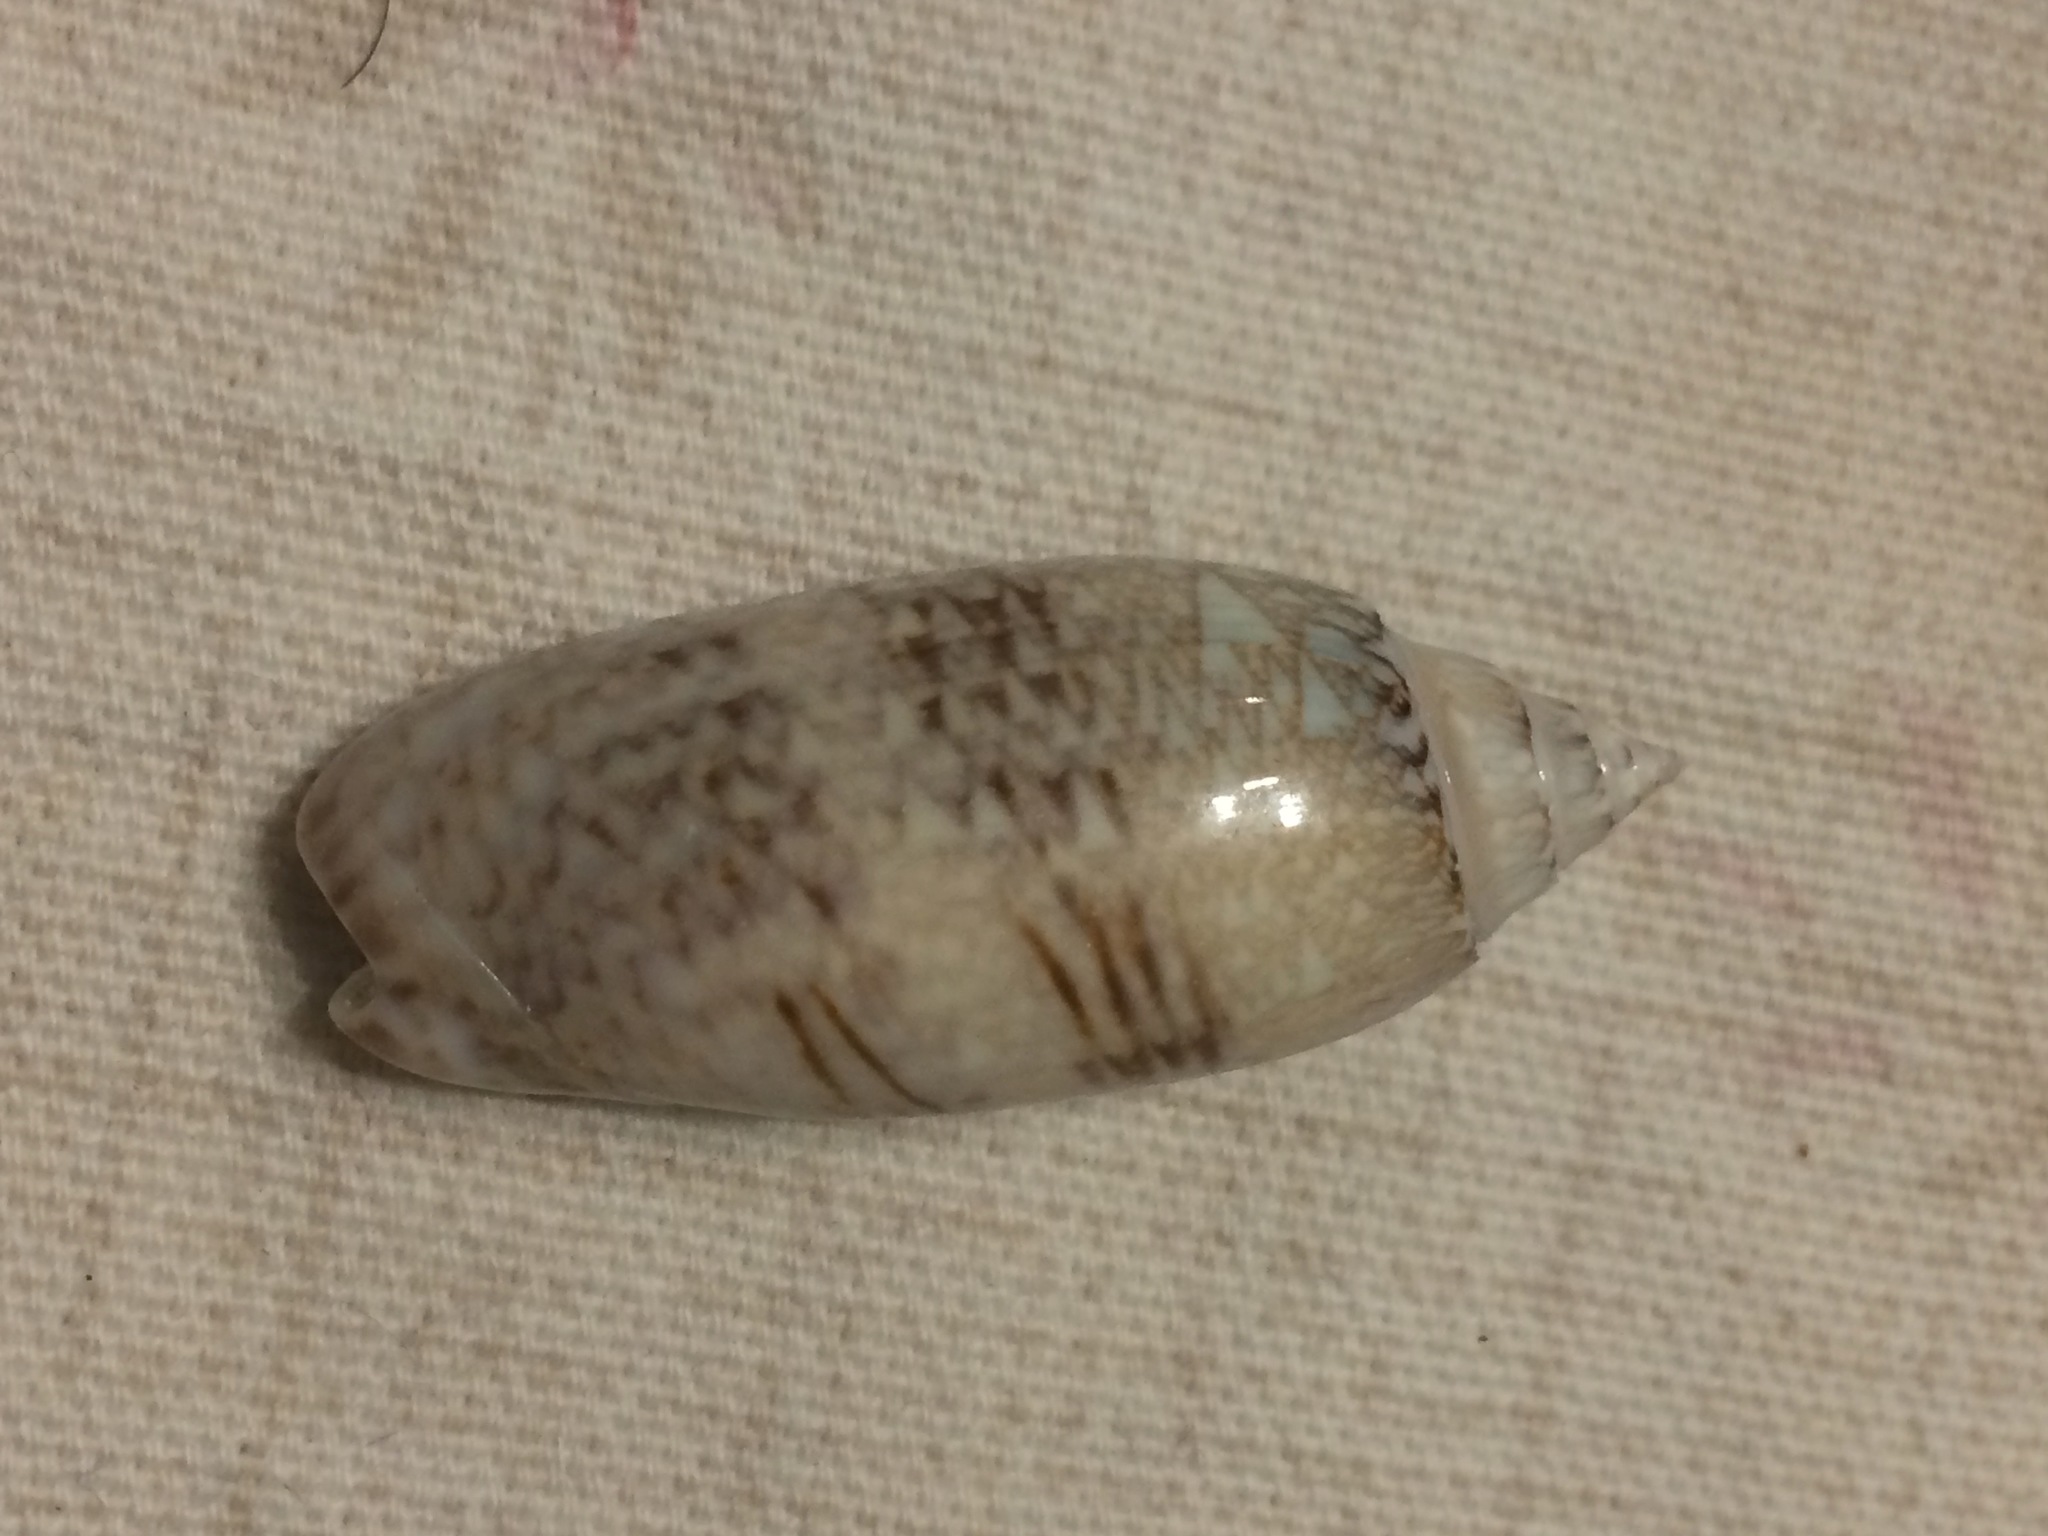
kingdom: Animalia
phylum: Mollusca
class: Gastropoda
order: Neogastropoda
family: Olividae
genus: Oliva
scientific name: Oliva sayana
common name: Lettered olive
